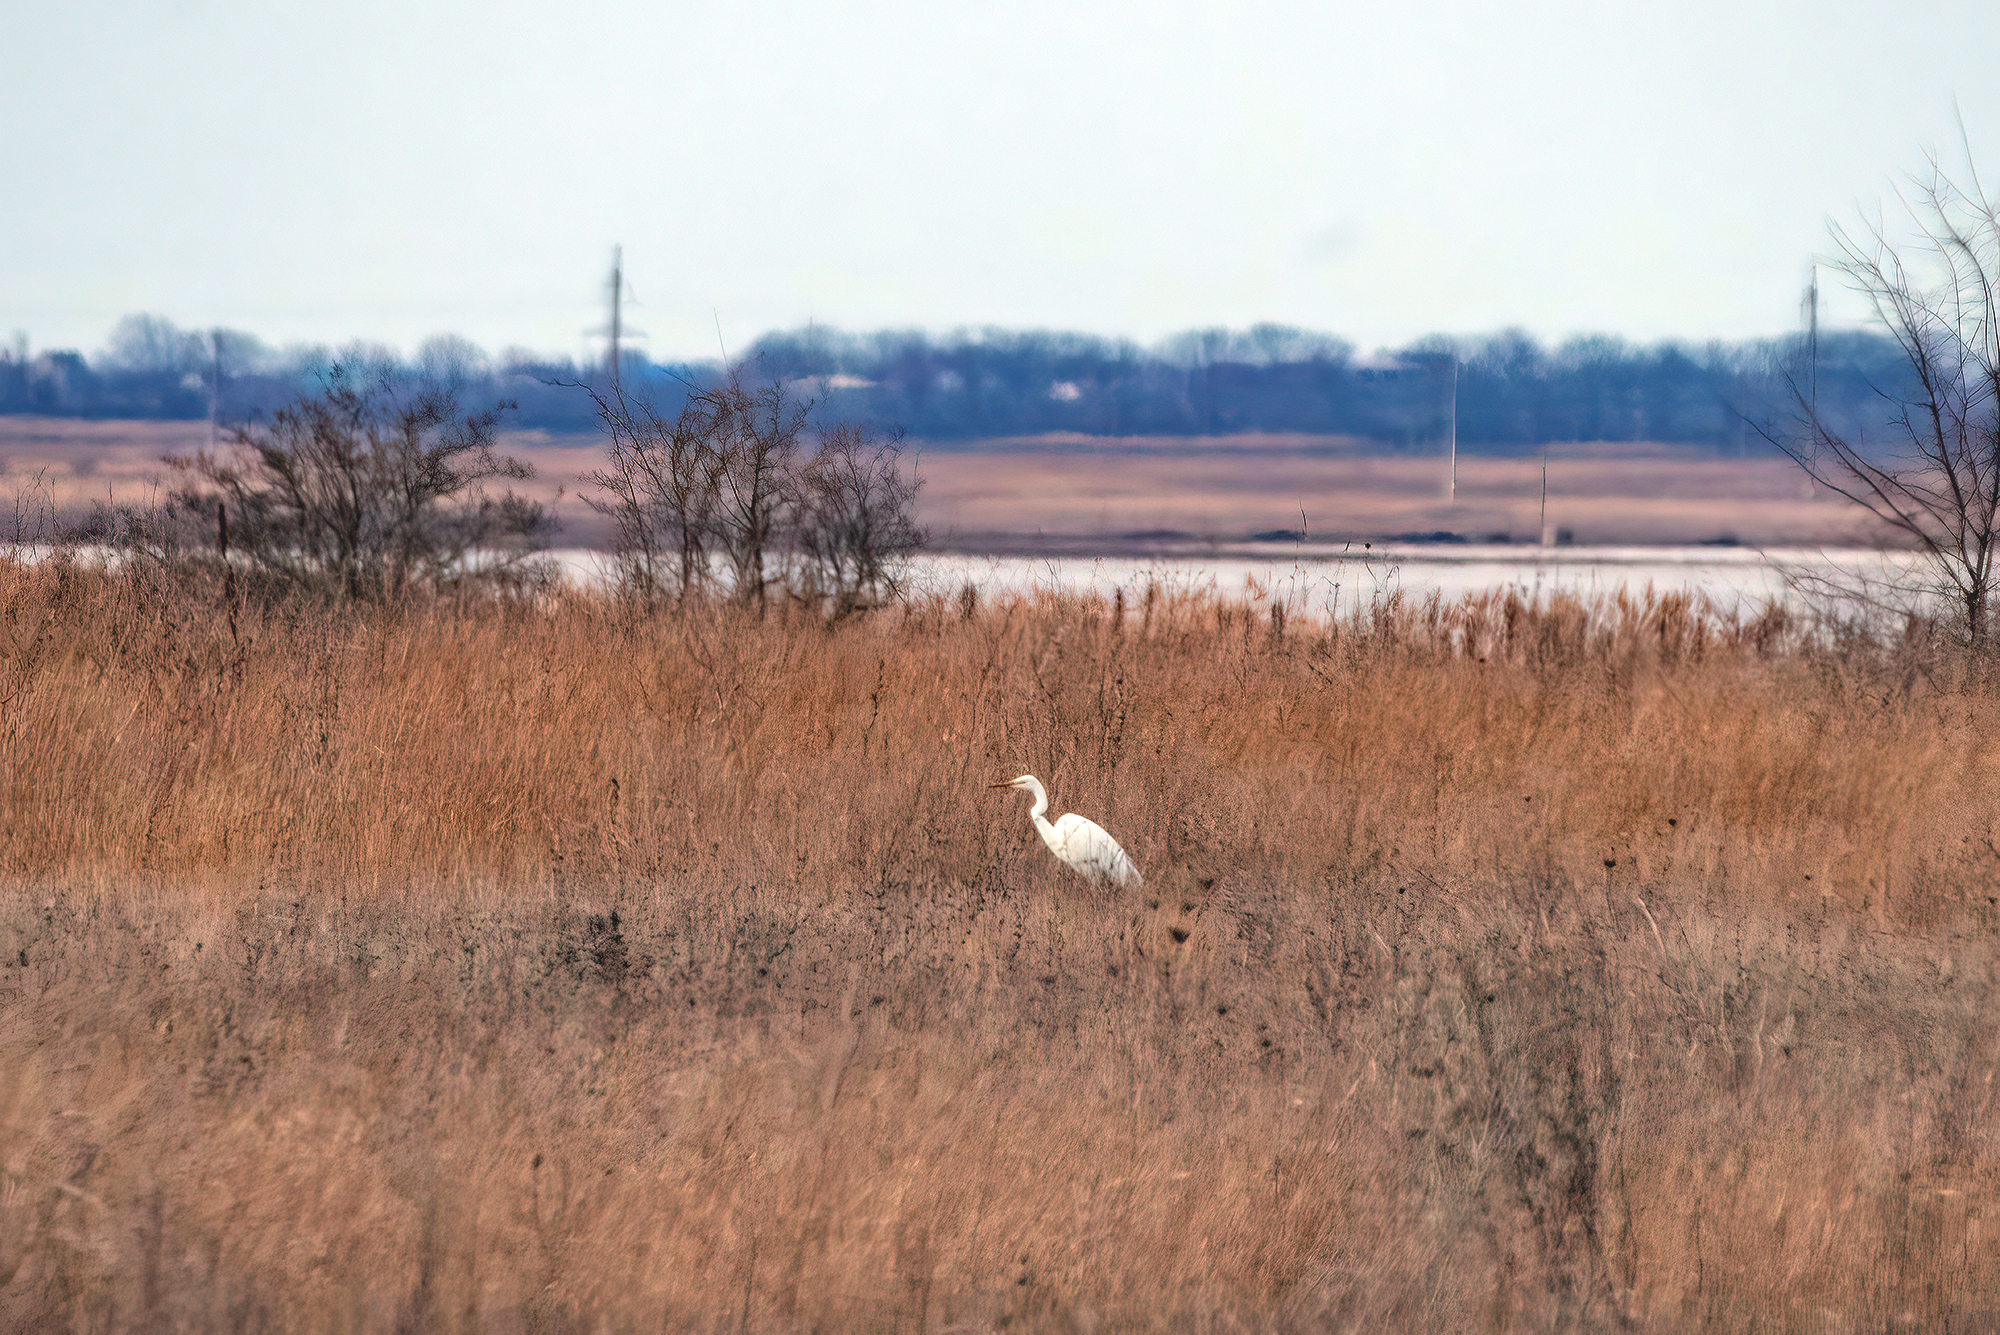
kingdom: Animalia
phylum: Chordata
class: Aves
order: Pelecaniformes
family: Ardeidae
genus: Ardea
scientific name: Ardea alba
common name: Great egret
